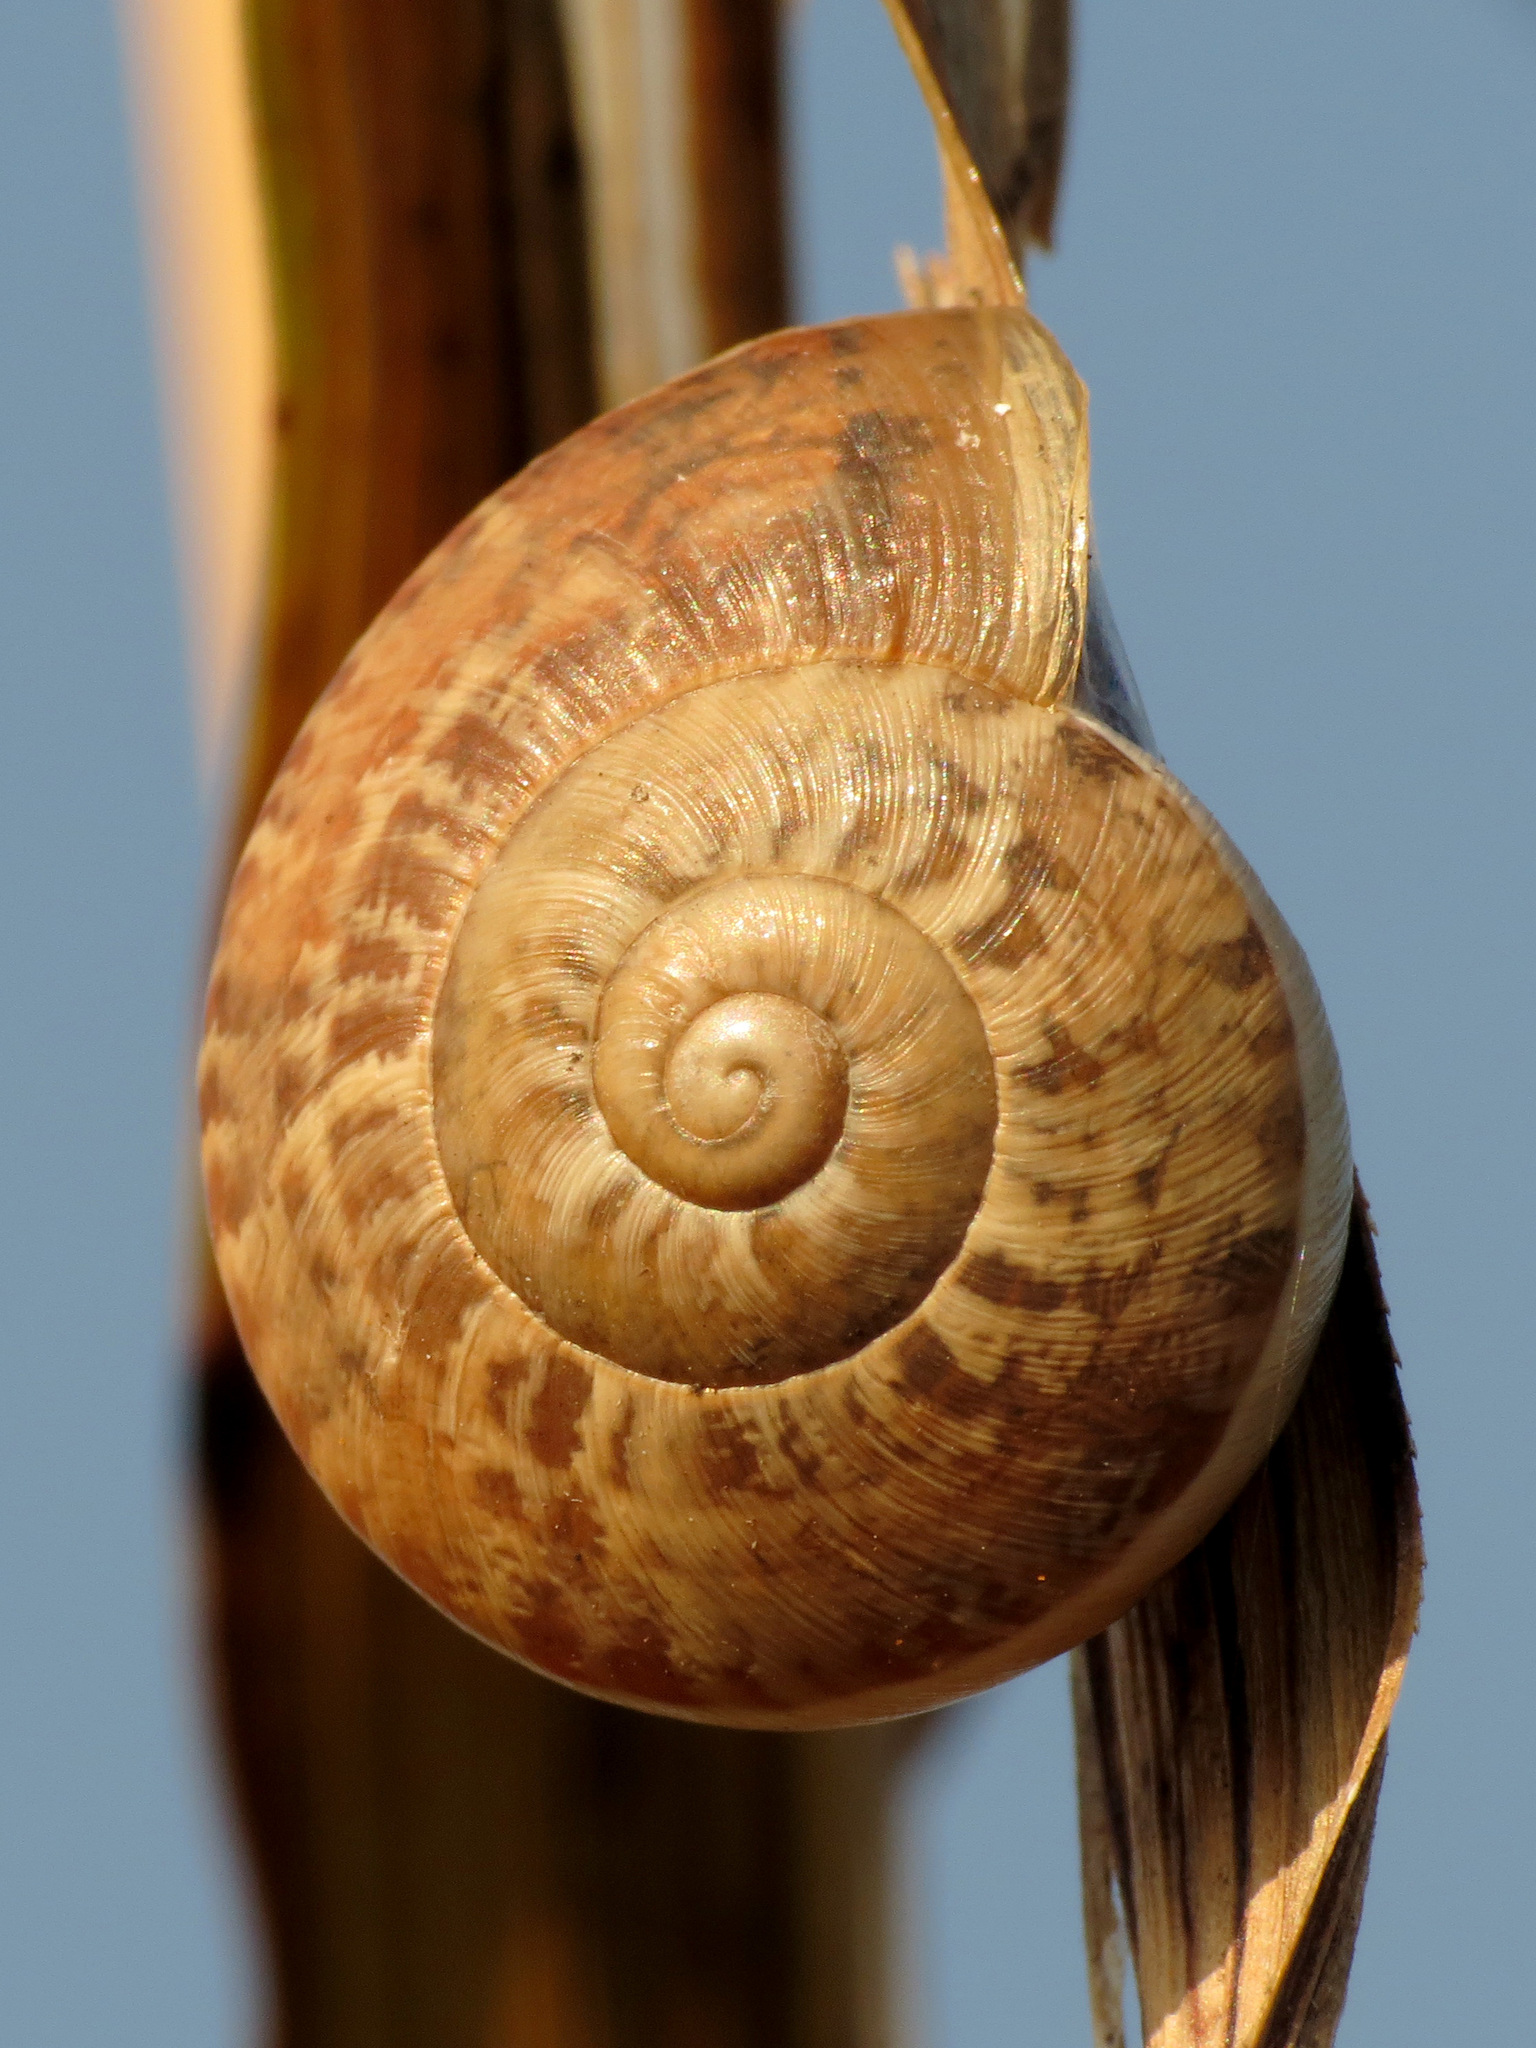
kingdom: Animalia
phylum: Mollusca
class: Gastropoda
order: Stylommatophora
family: Helicidae
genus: Eobania
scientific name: Eobania vermiculata
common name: Chocolateband snail
